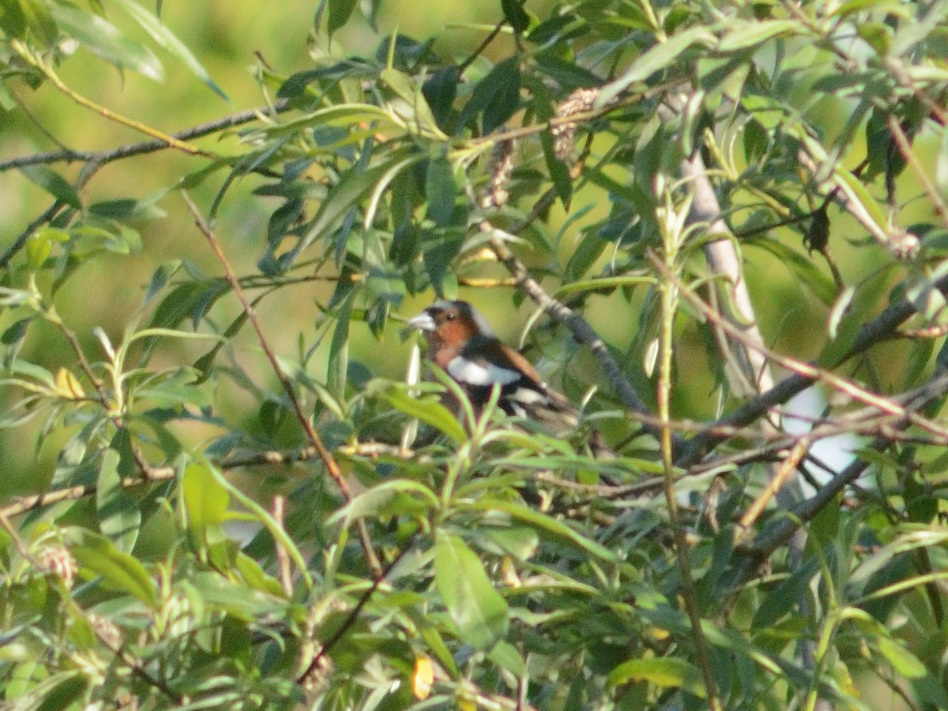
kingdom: Animalia
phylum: Chordata
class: Aves
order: Passeriformes
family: Fringillidae
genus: Fringilla
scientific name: Fringilla coelebs
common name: Common chaffinch
